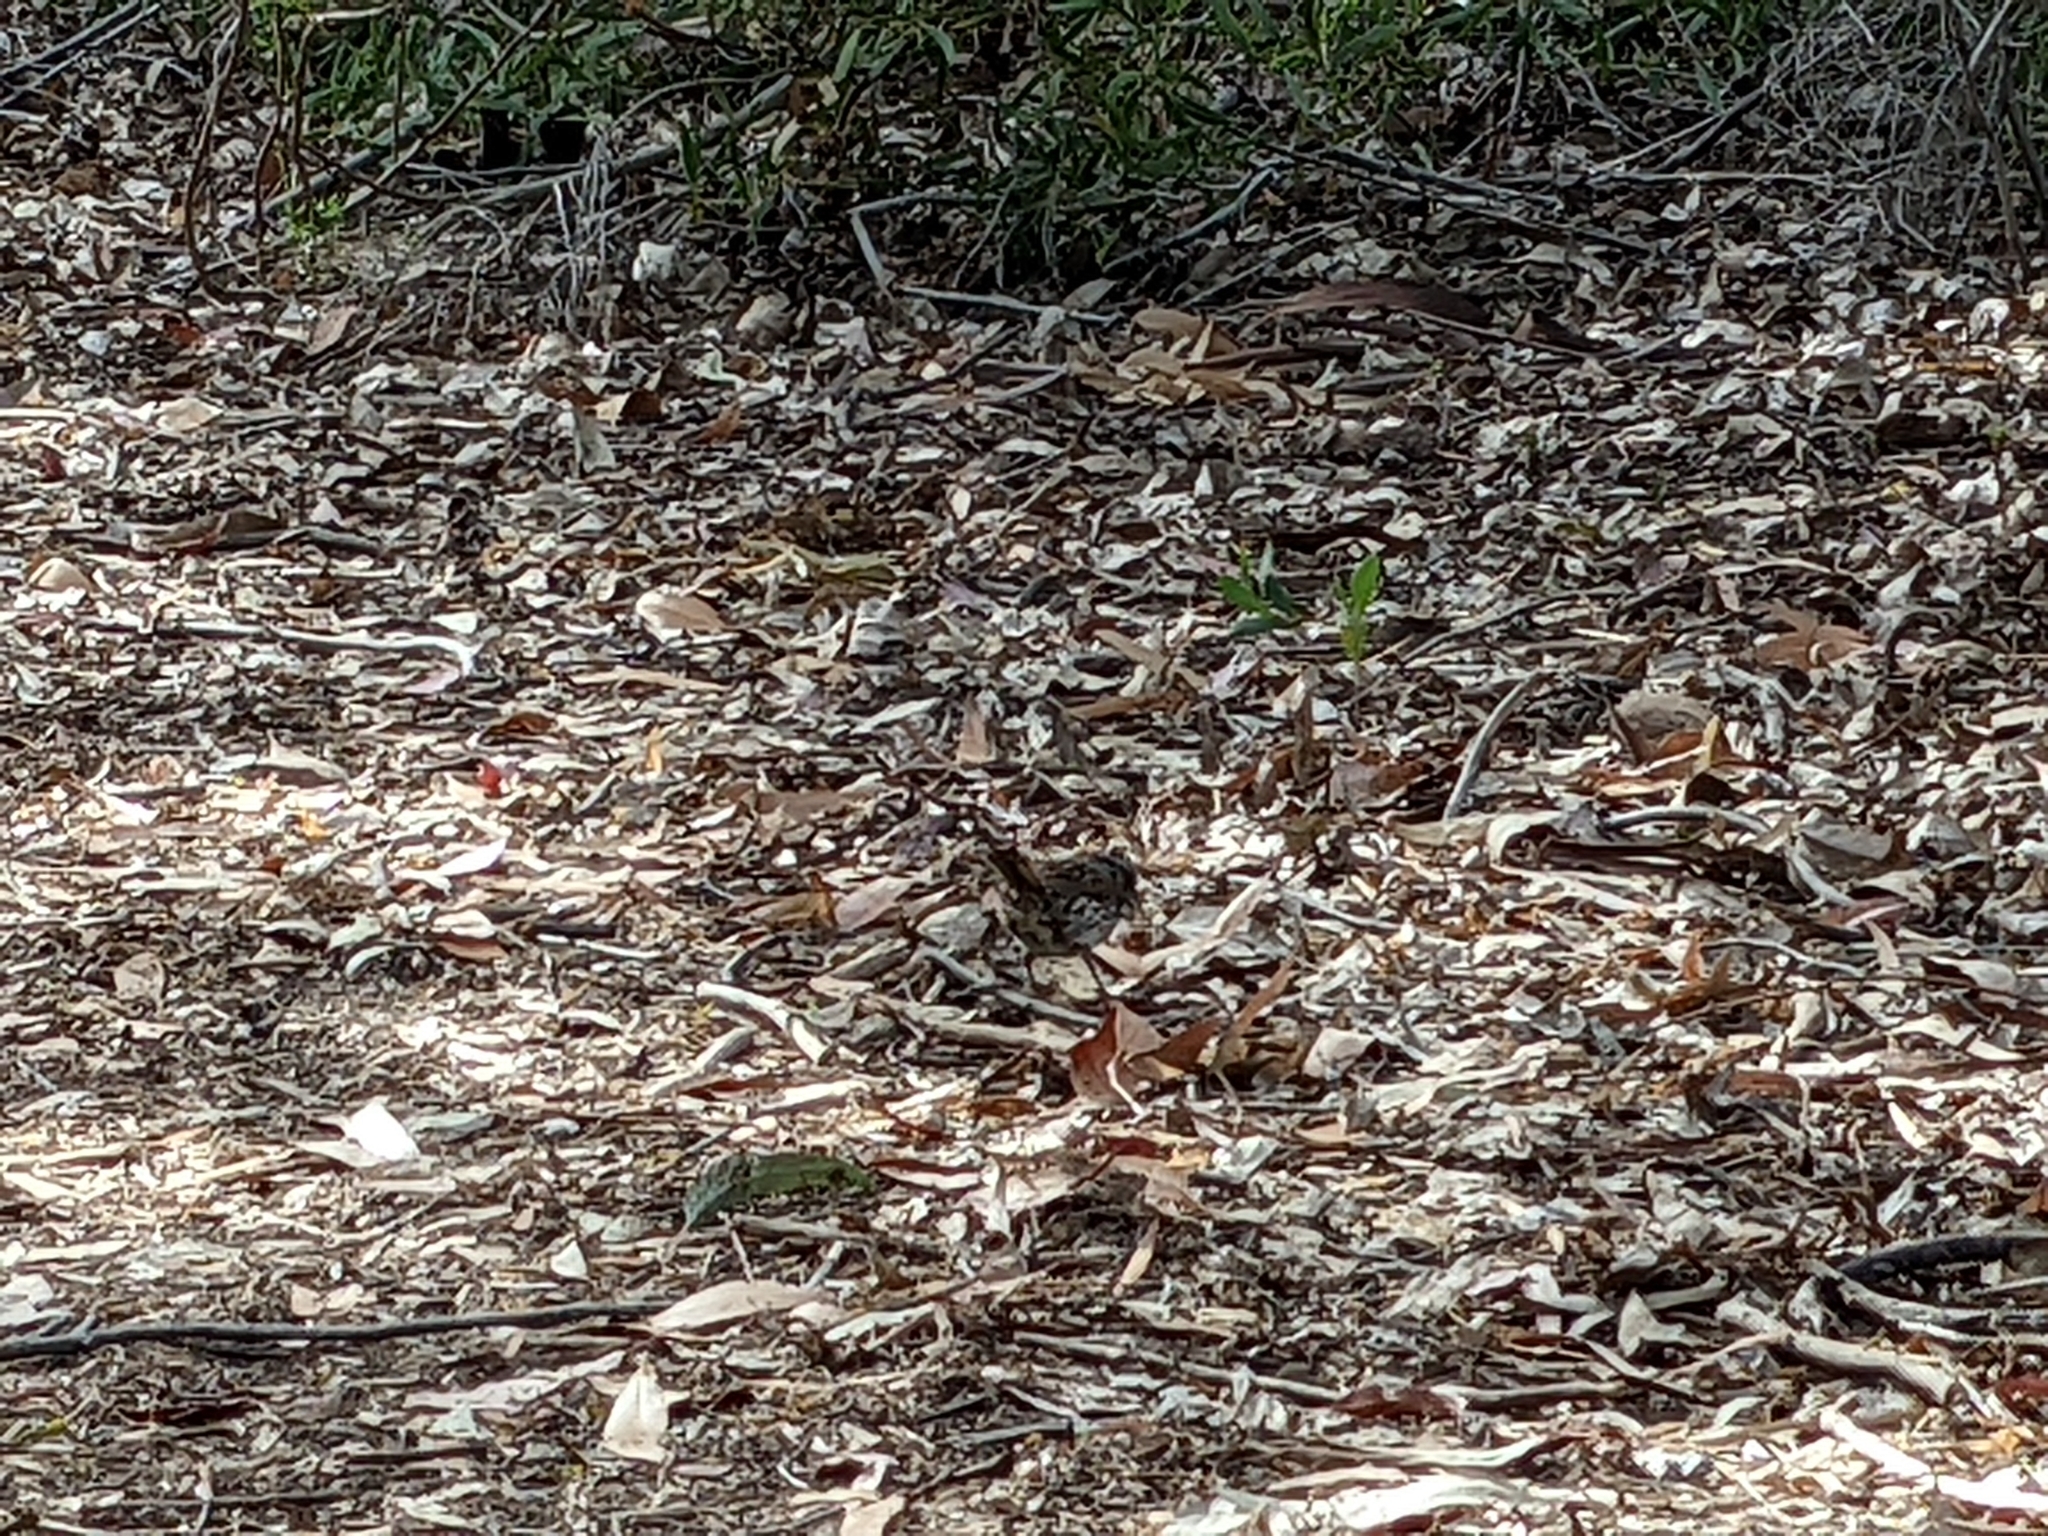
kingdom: Animalia
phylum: Chordata
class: Aves
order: Passeriformes
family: Passerellidae
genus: Melospiza
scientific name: Melospiza melodia
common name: Song sparrow
